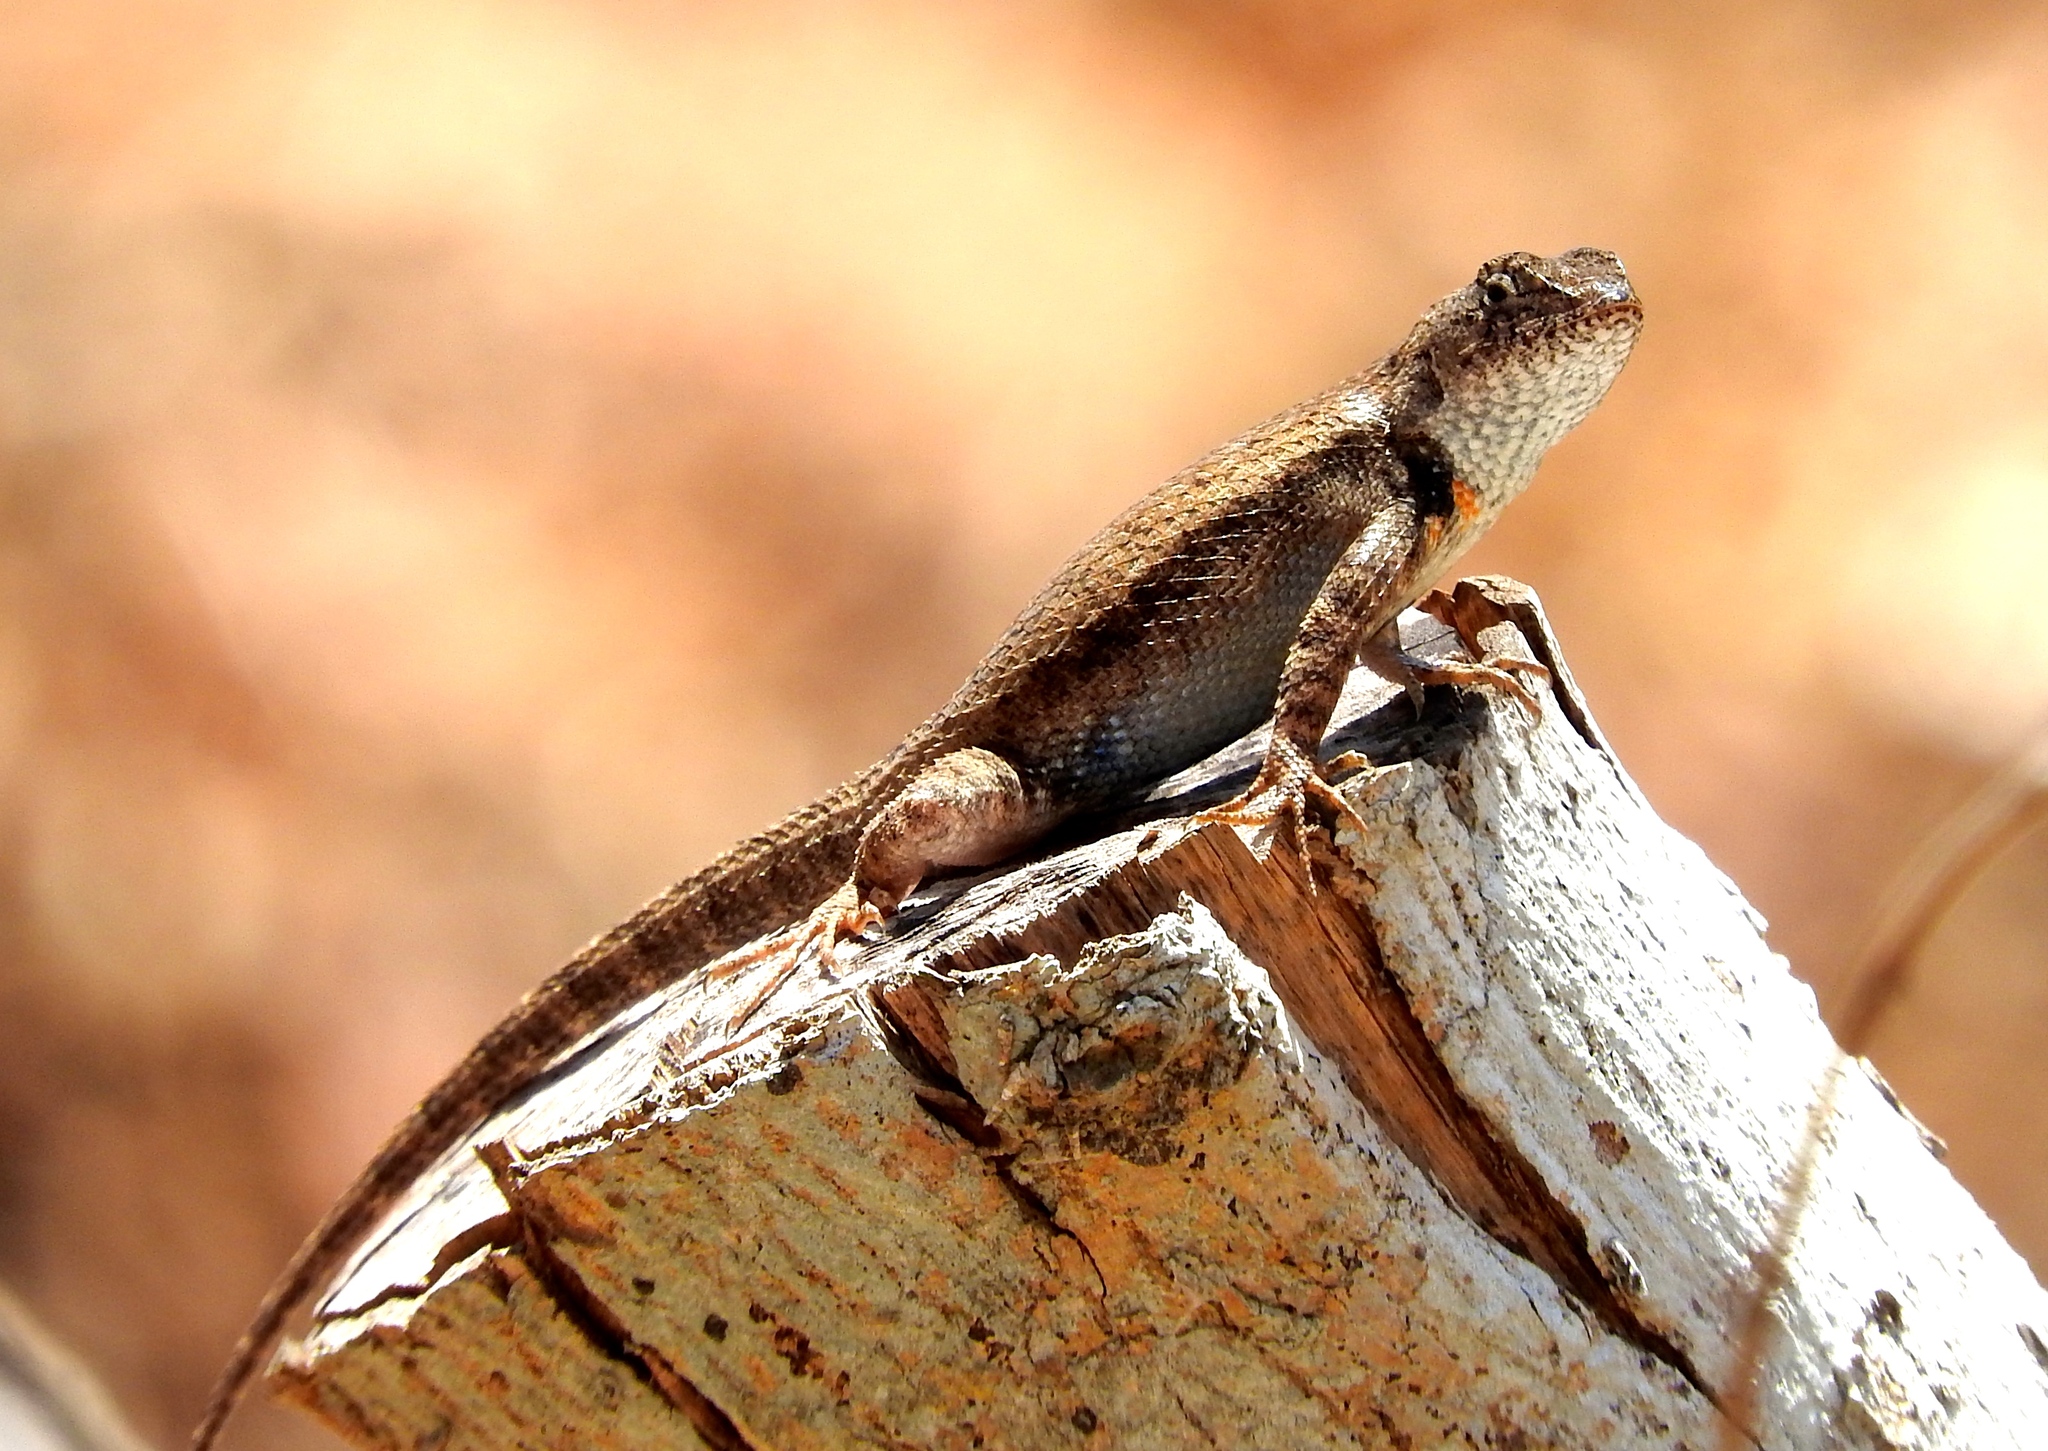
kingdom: Animalia
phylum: Chordata
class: Squamata
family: Phrynosomatidae
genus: Sceloporus
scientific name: Sceloporus nelsoni
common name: Nelson's spiny lizard
